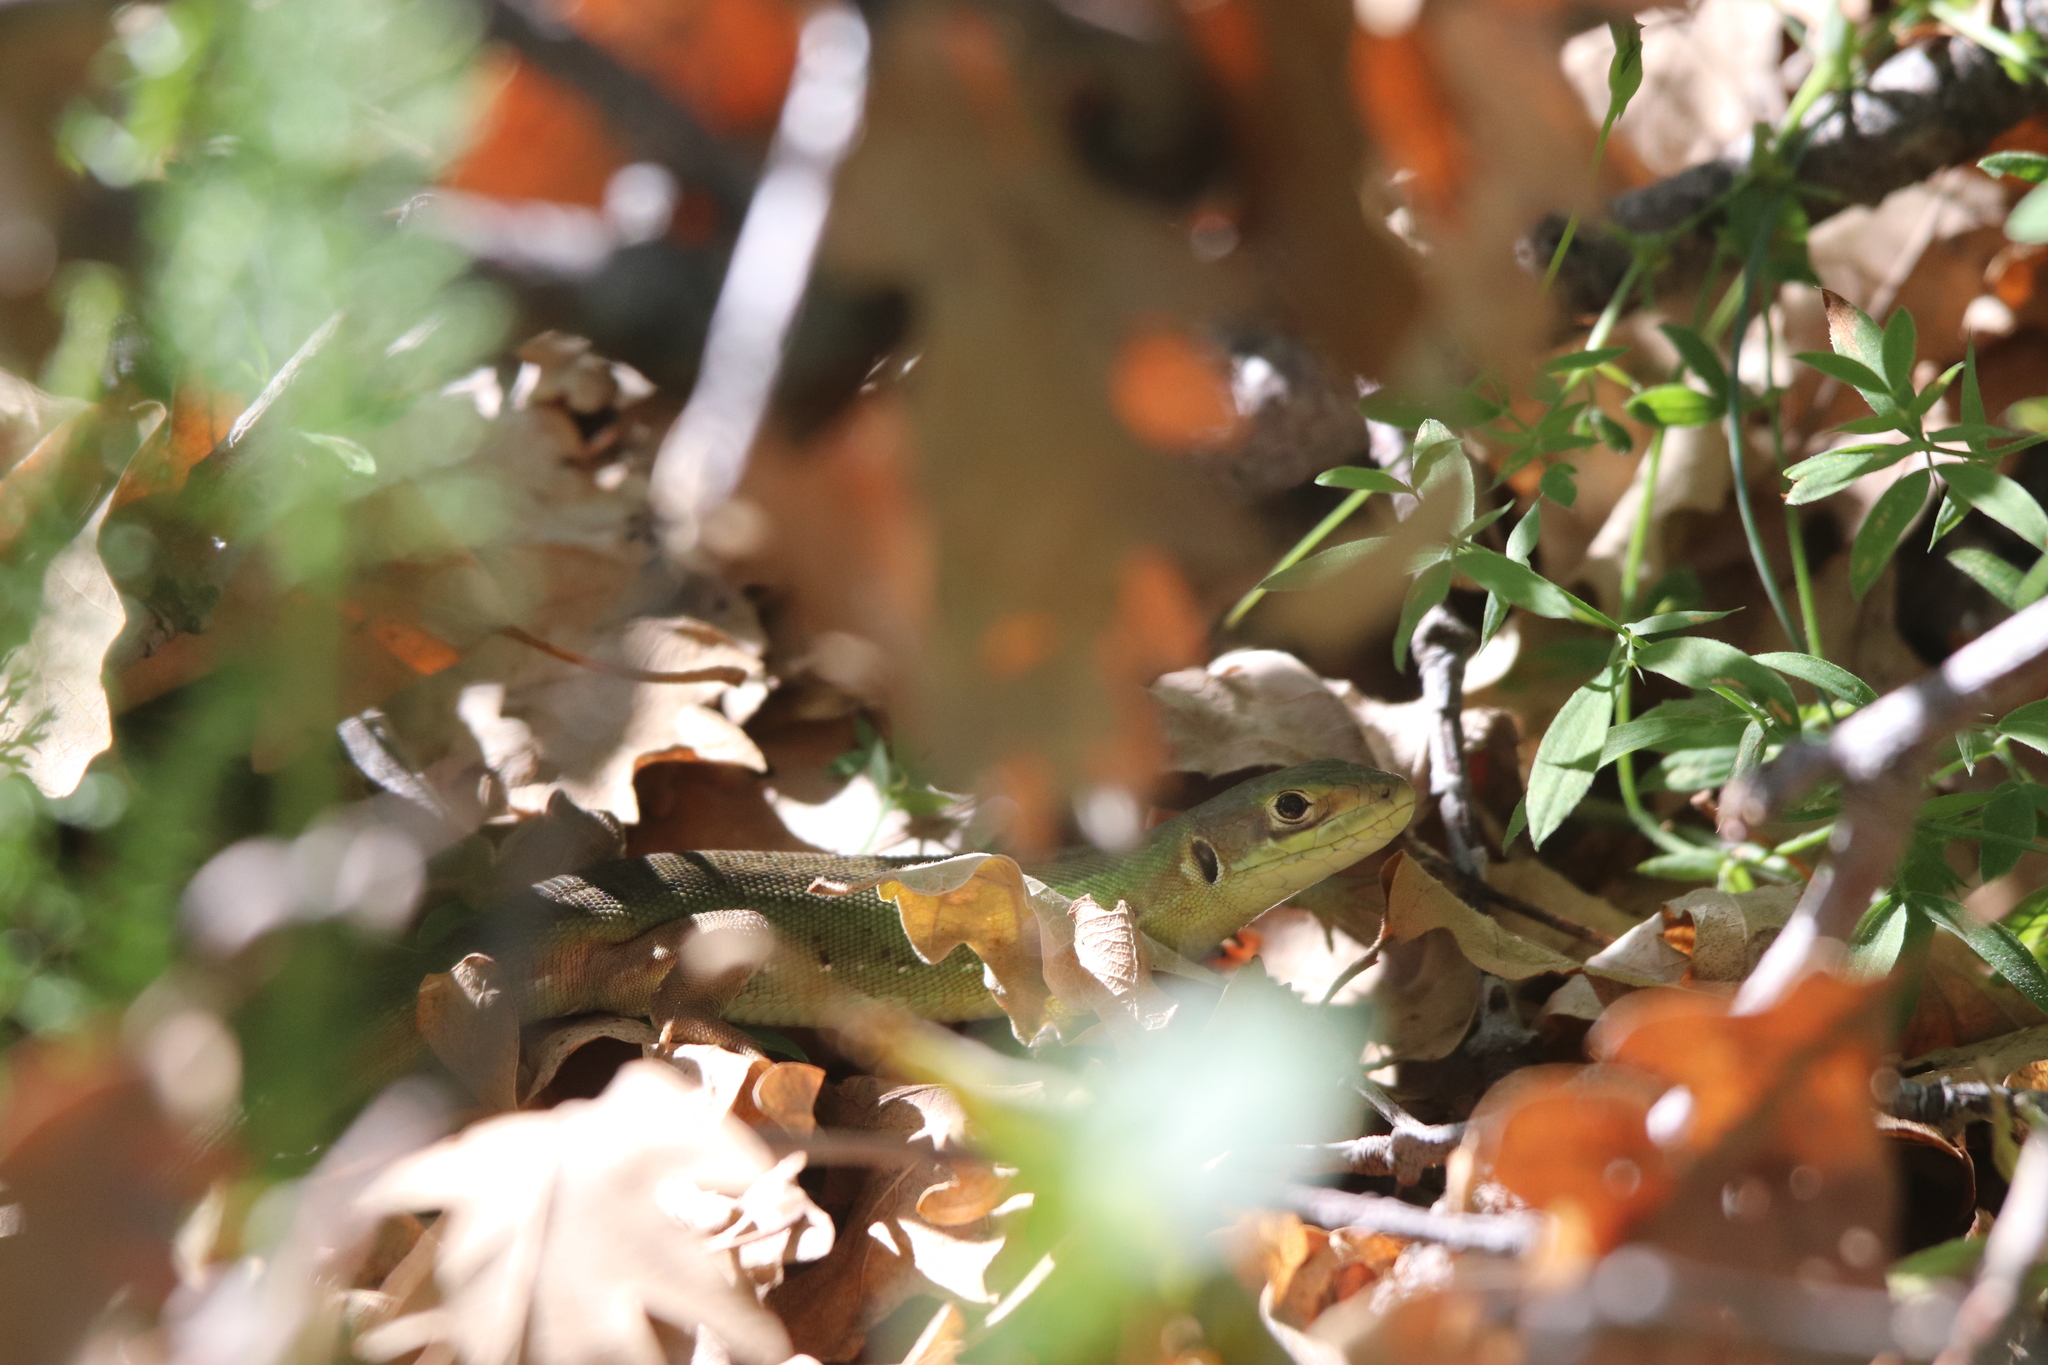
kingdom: Animalia
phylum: Chordata
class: Squamata
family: Lacertidae
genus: Lacerta
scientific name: Lacerta bilineata
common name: Western green lizard
